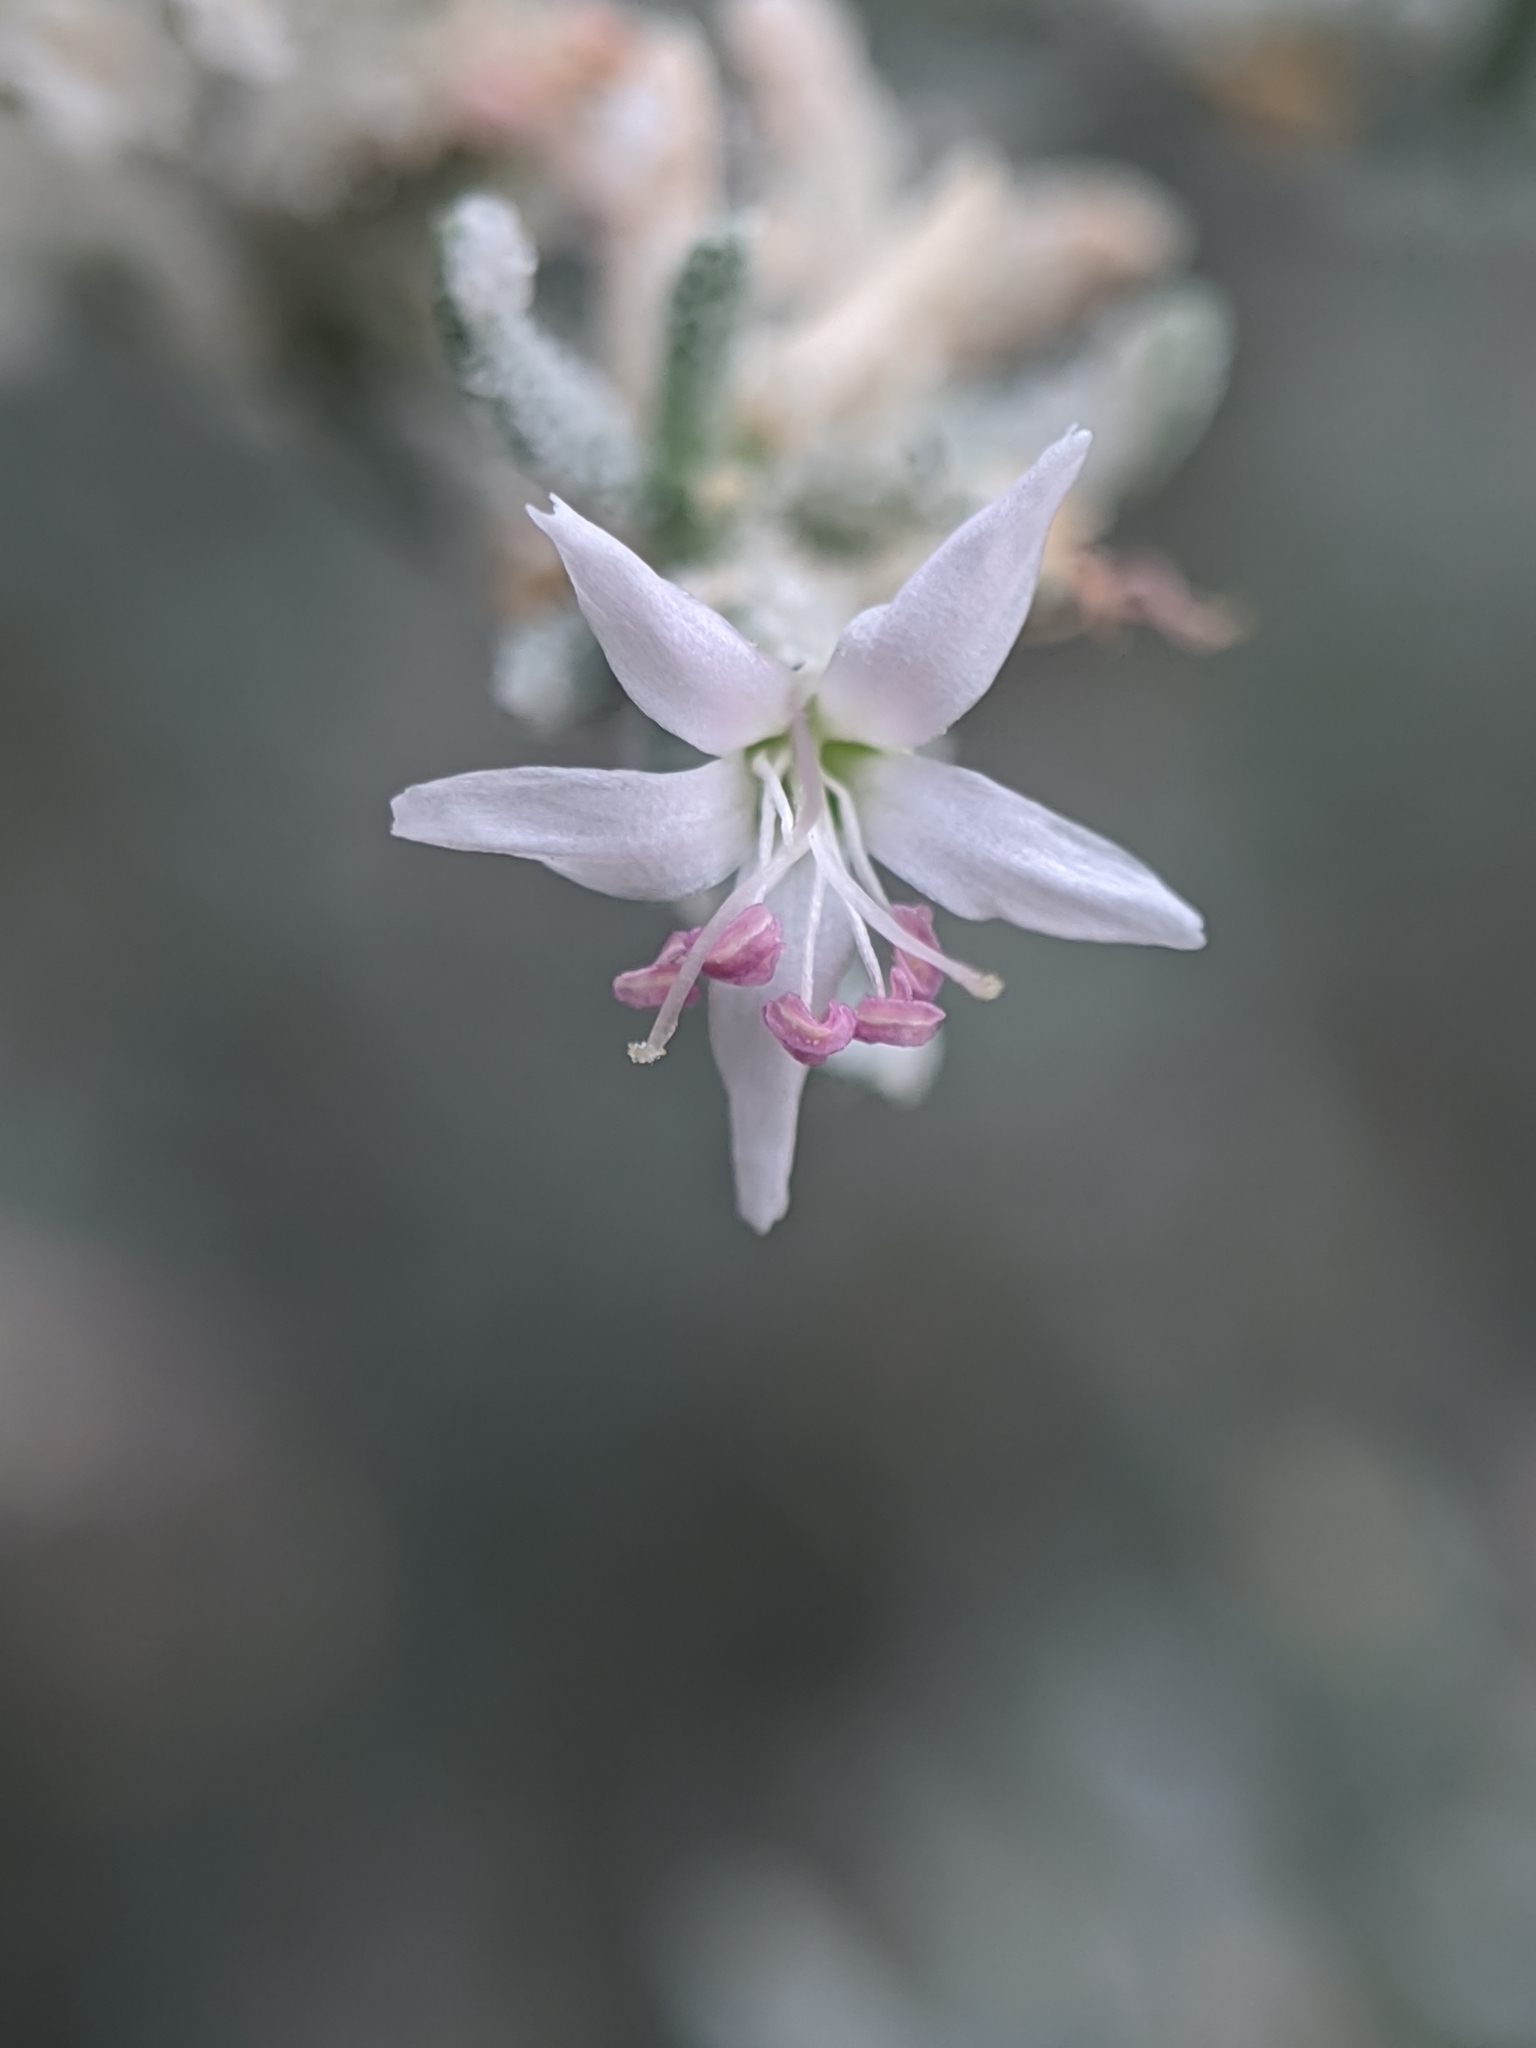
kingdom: Plantae
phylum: Tracheophyta
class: Magnoliopsida
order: Caryophyllales
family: Frankeniaceae
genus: Frankenia
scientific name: Frankenia salina
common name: Alkali seaheath
